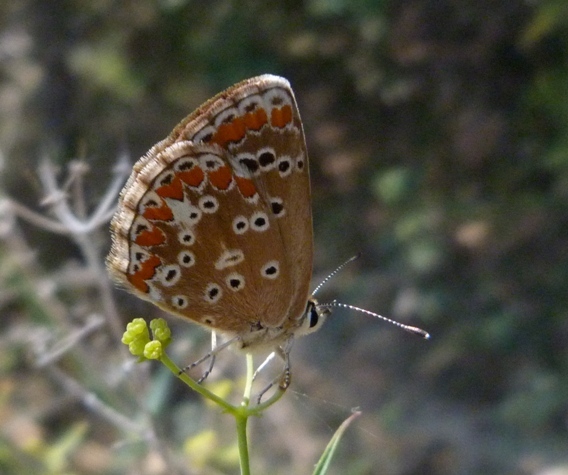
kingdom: Animalia
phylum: Arthropoda
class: Insecta
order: Lepidoptera
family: Lycaenidae
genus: Aricia
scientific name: Aricia cramera
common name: Eschscholtz´s brown  argus
